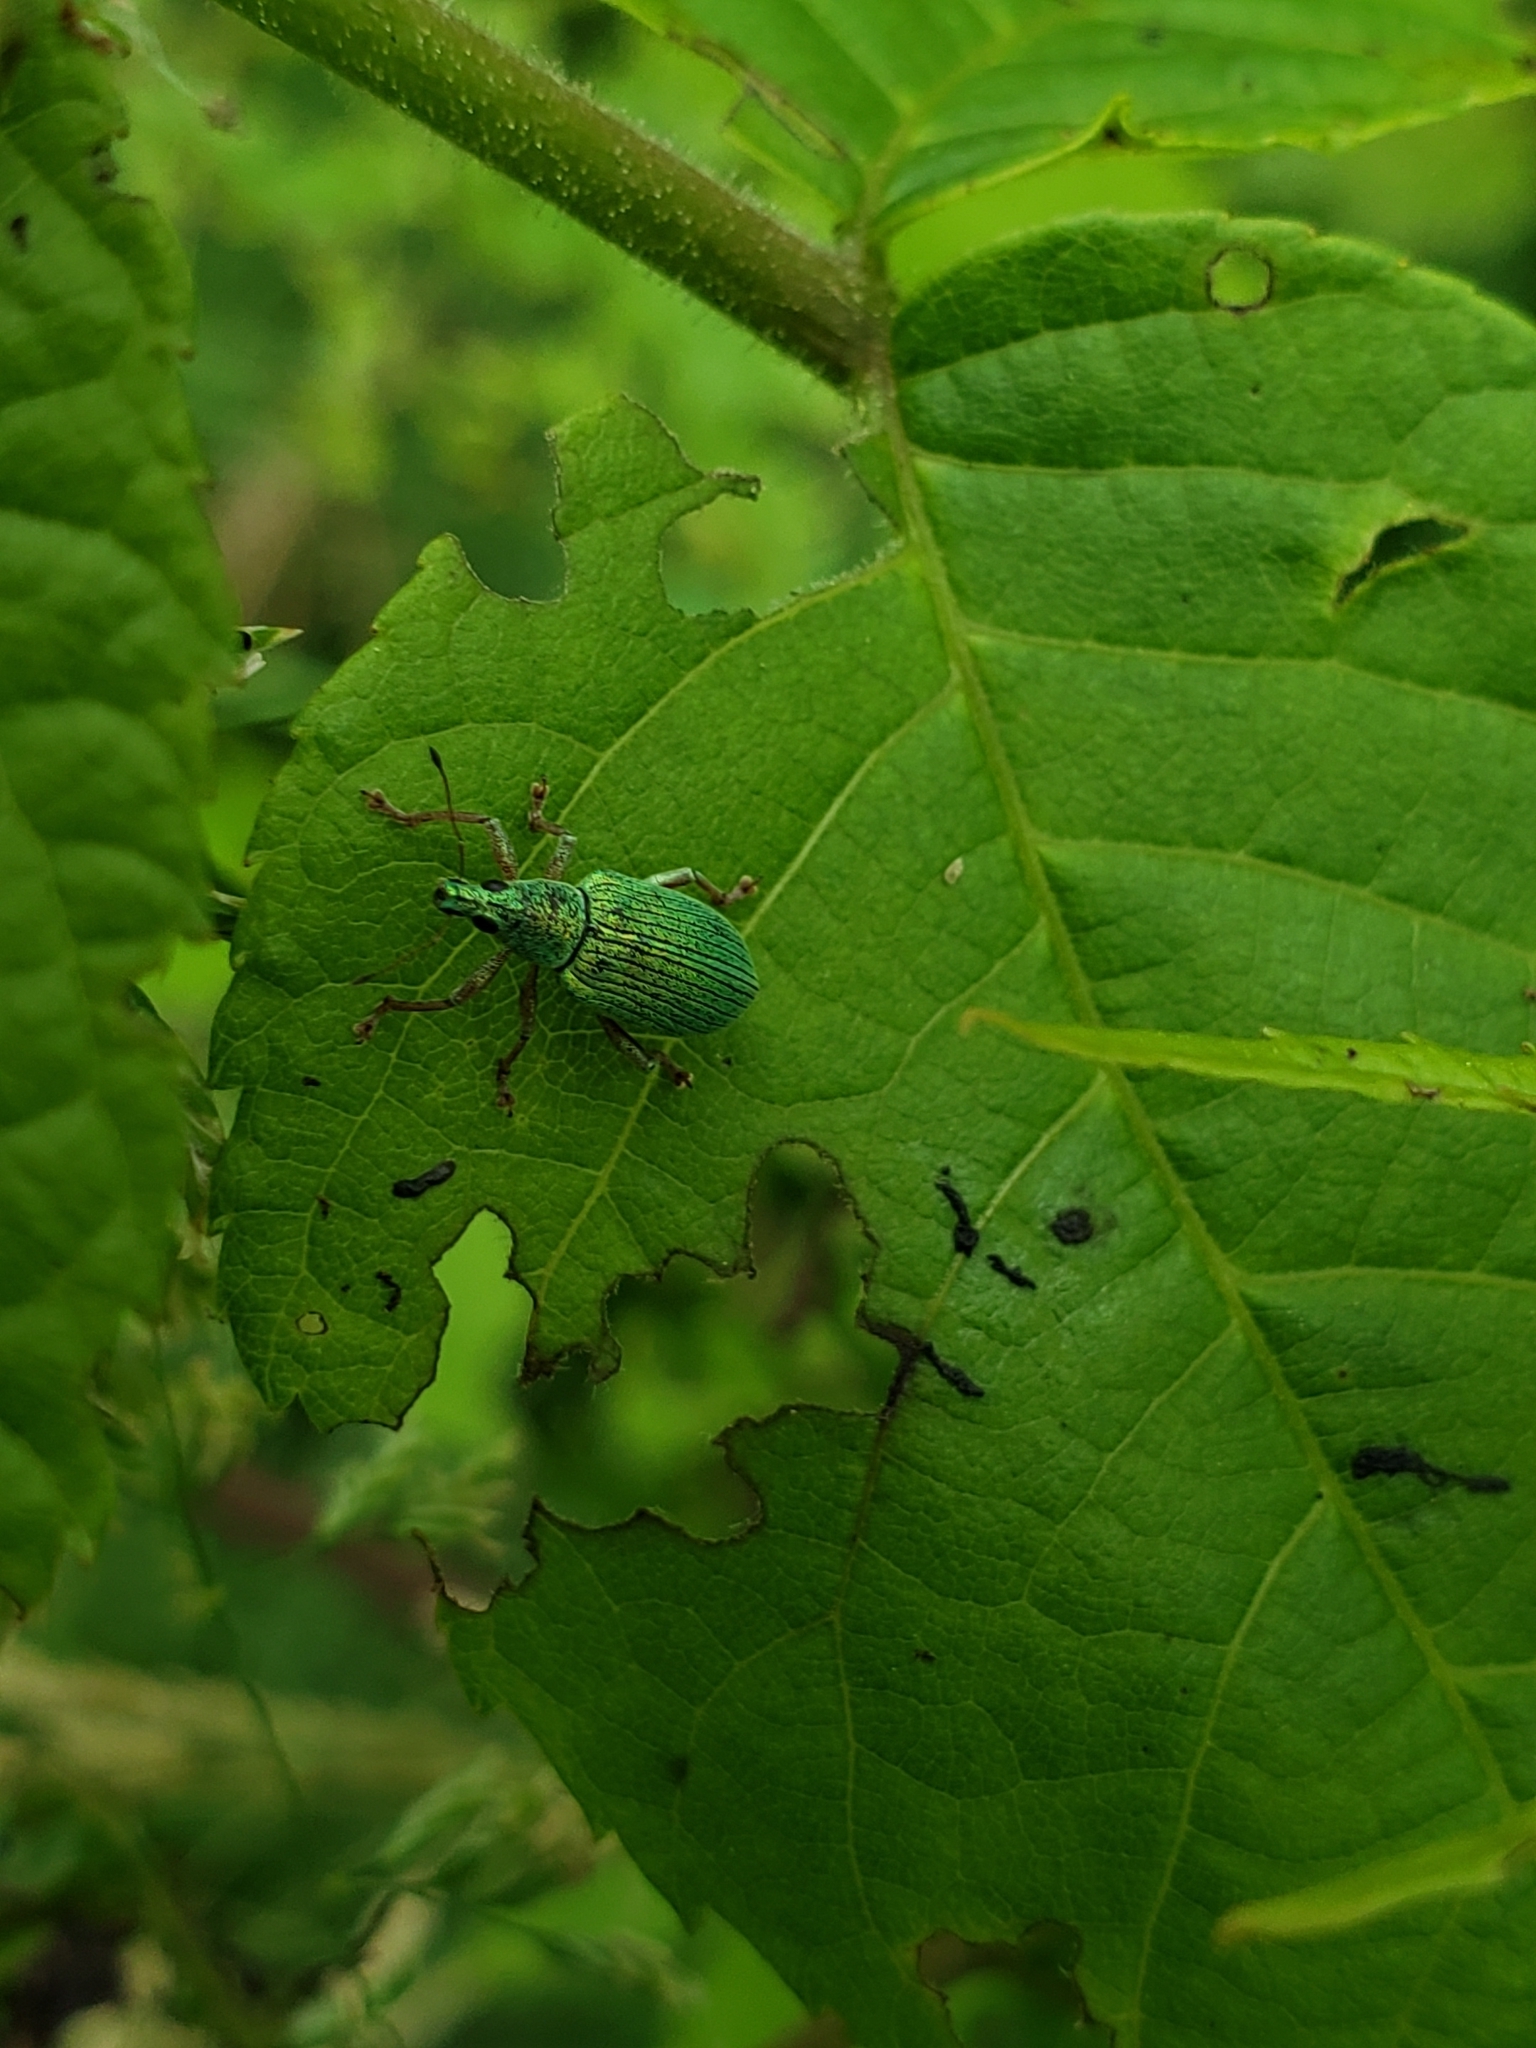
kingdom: Animalia
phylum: Arthropoda
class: Insecta
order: Coleoptera
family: Curculionidae
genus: Polydrusus
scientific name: Polydrusus formosus
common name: Weevil
